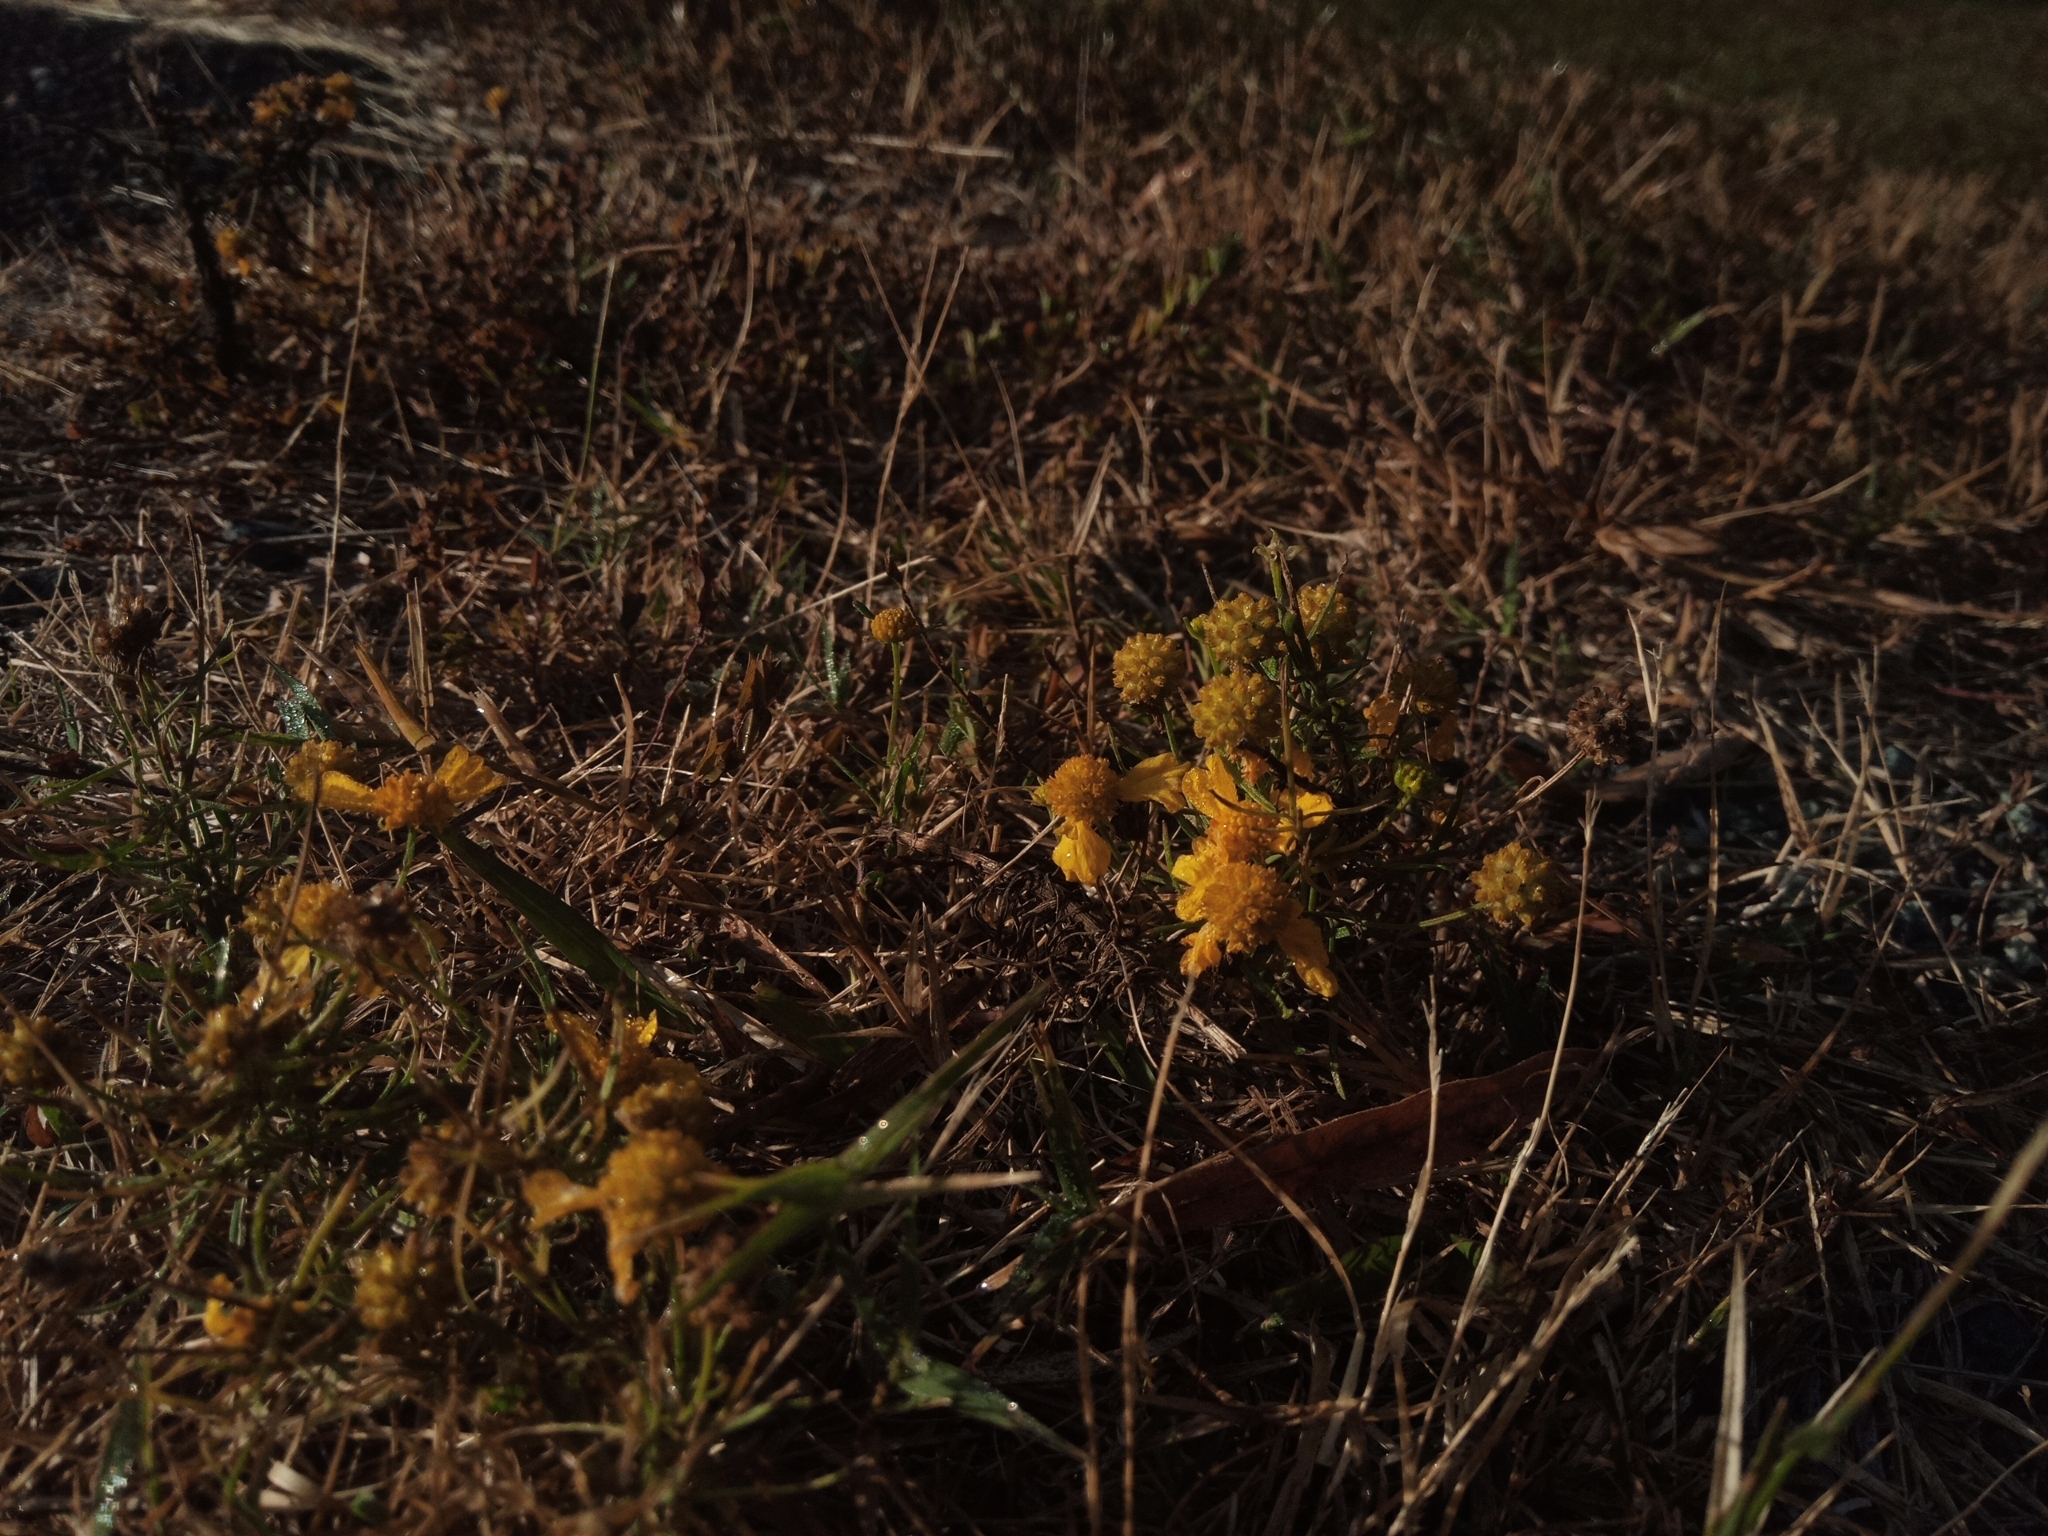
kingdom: Plantae
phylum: Tracheophyta
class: Magnoliopsida
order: Asterales
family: Asteraceae
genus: Helenium
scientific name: Helenium amarum
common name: Bitter sneezeweed
